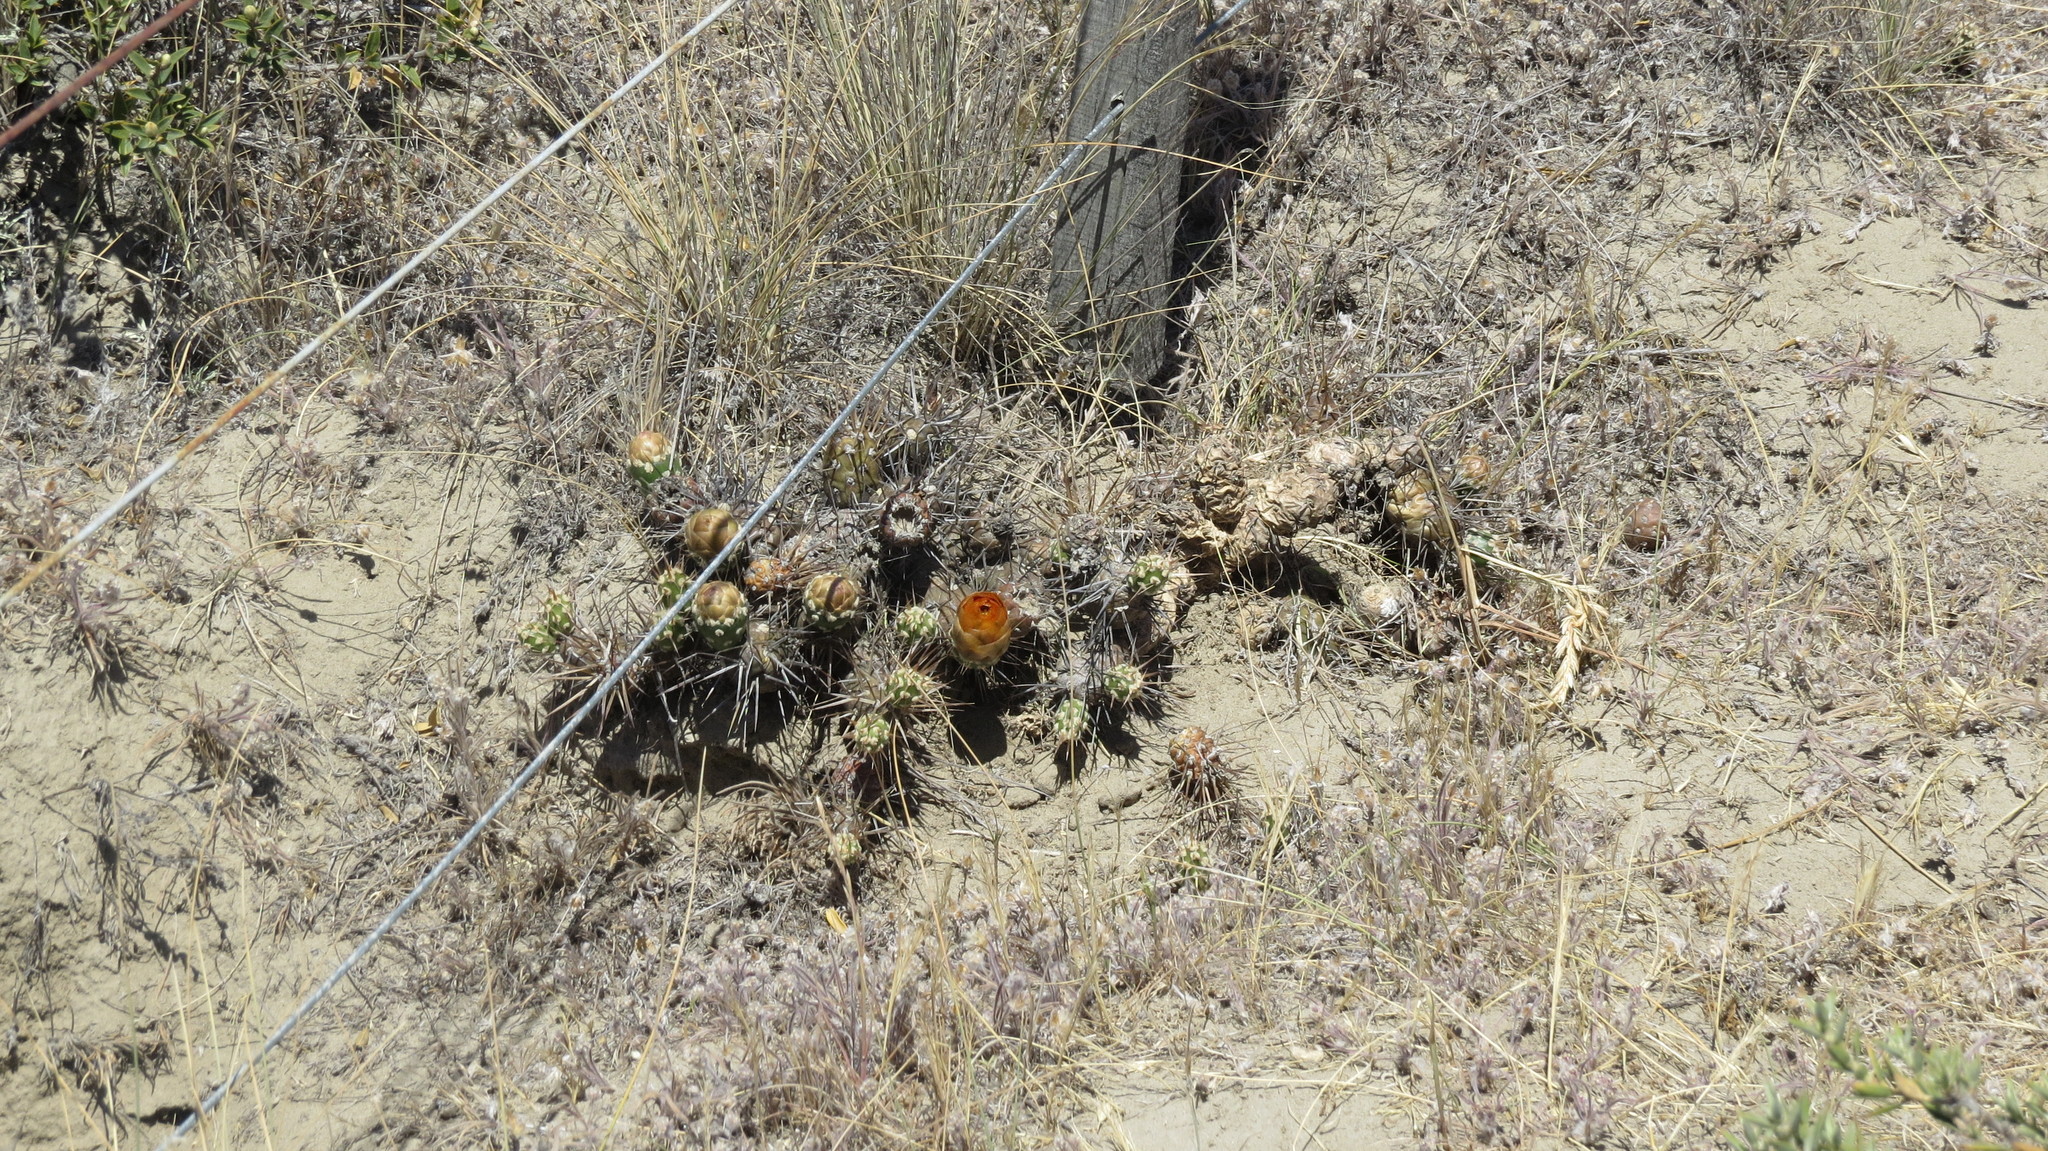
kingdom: Plantae
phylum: Tracheophyta
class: Magnoliopsida
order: Caryophyllales
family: Cactaceae
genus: Maihueniopsis
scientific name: Maihueniopsis darwinii
